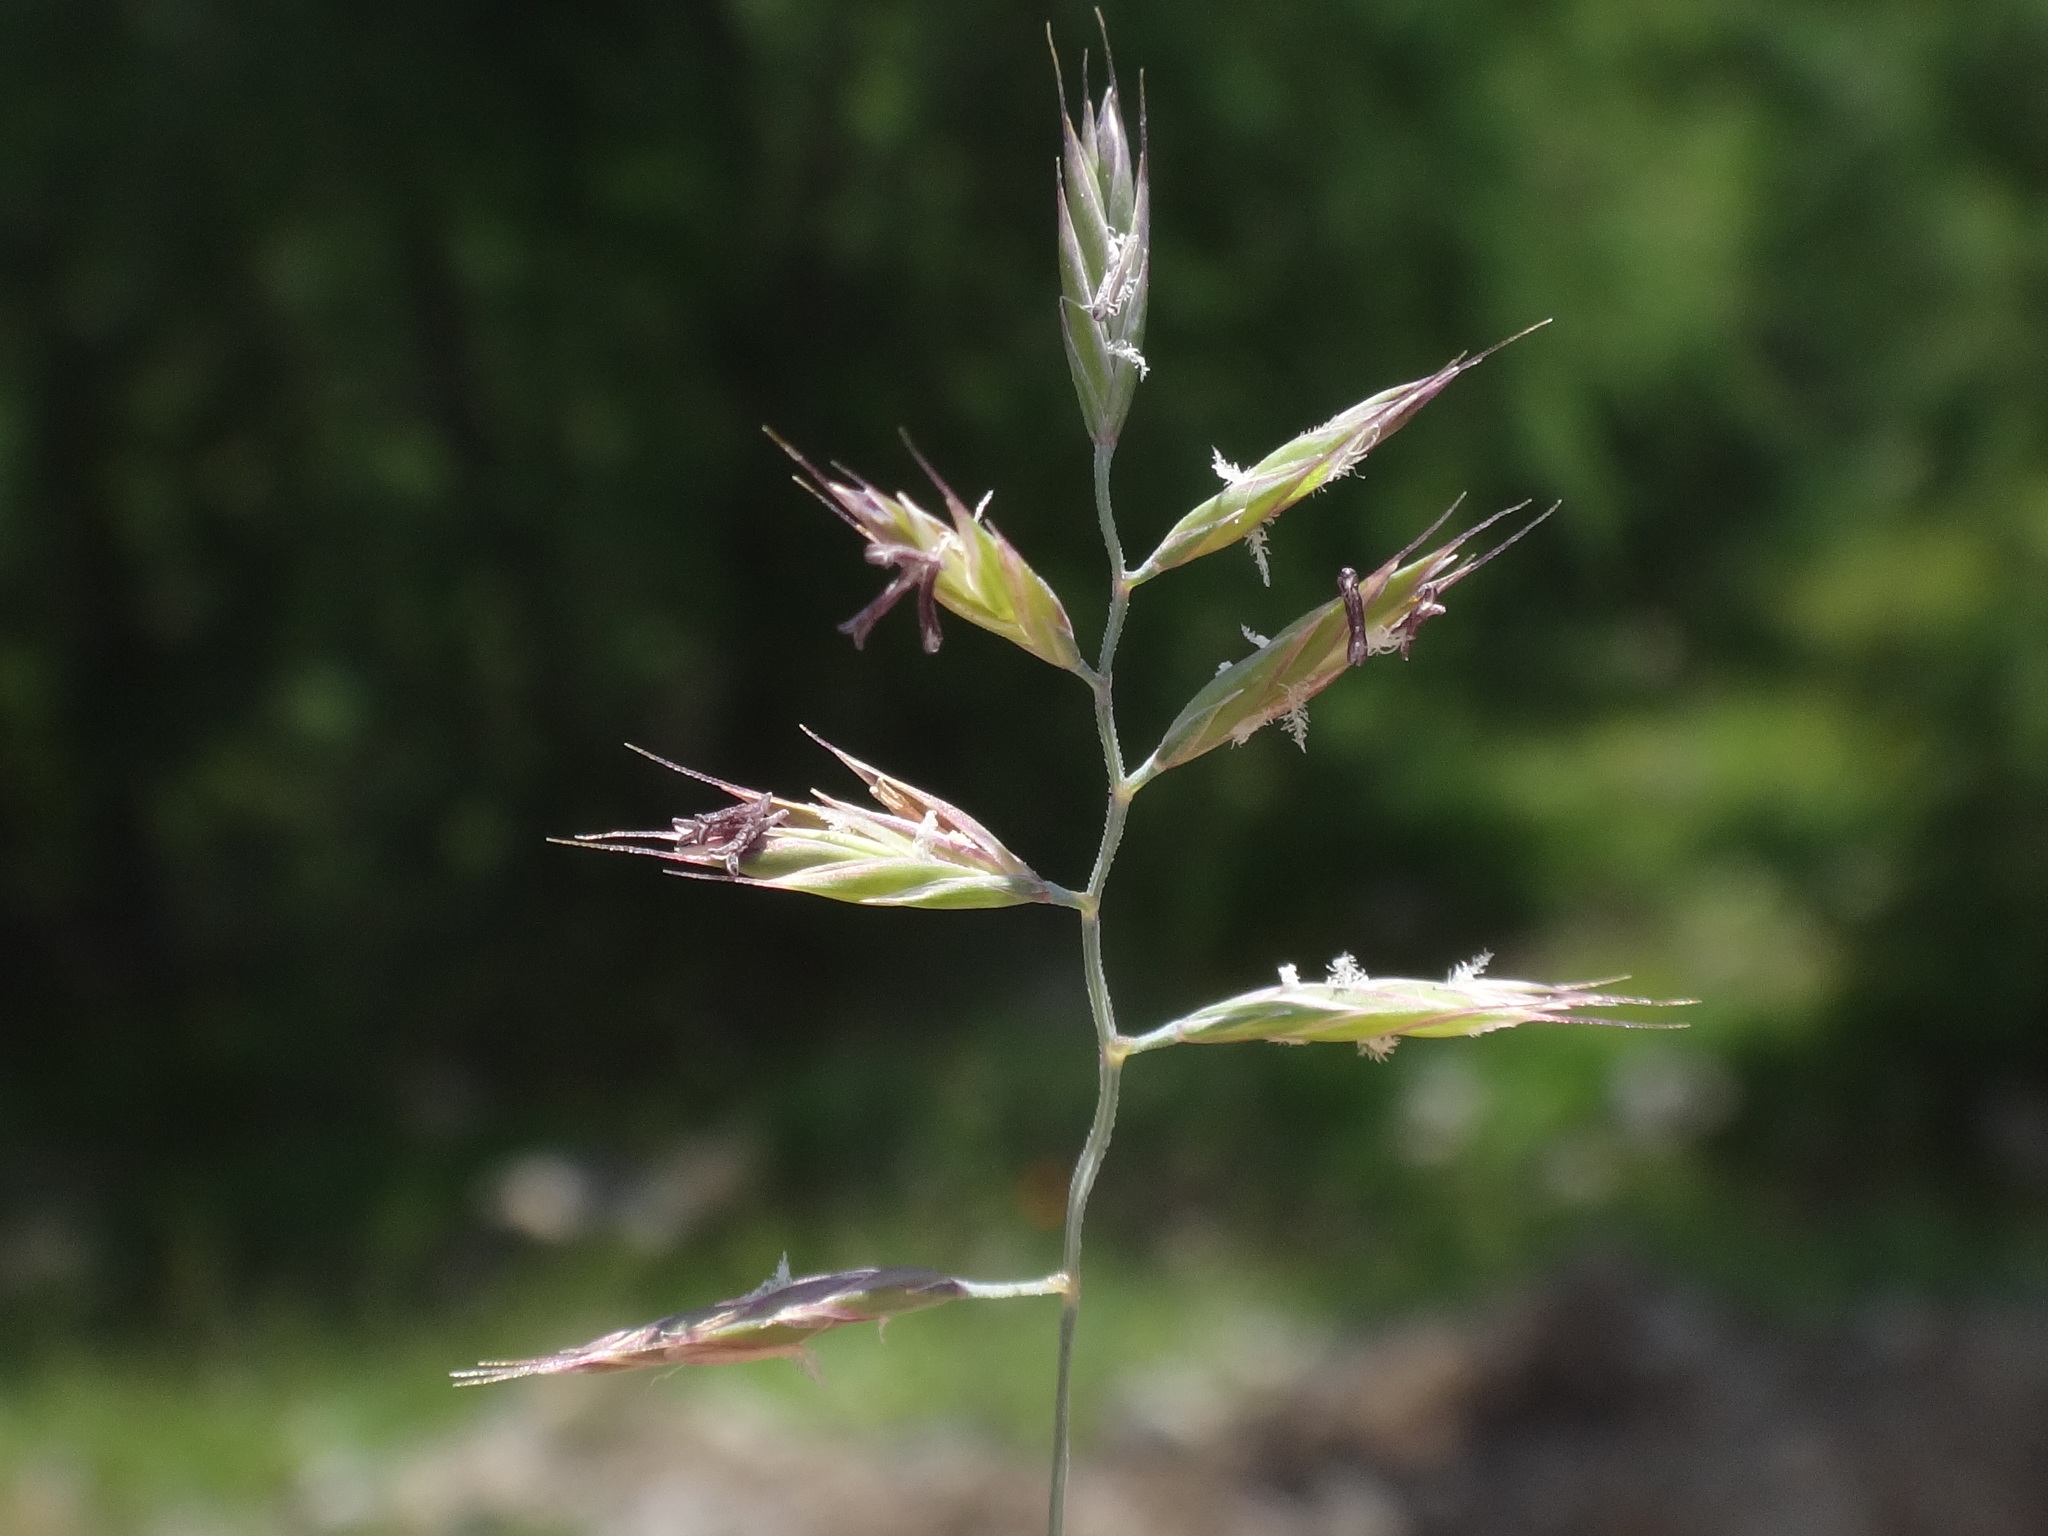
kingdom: Plantae
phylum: Tracheophyta
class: Liliopsida
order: Poales
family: Poaceae
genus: Festuca
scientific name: Festuca rupicaprina
